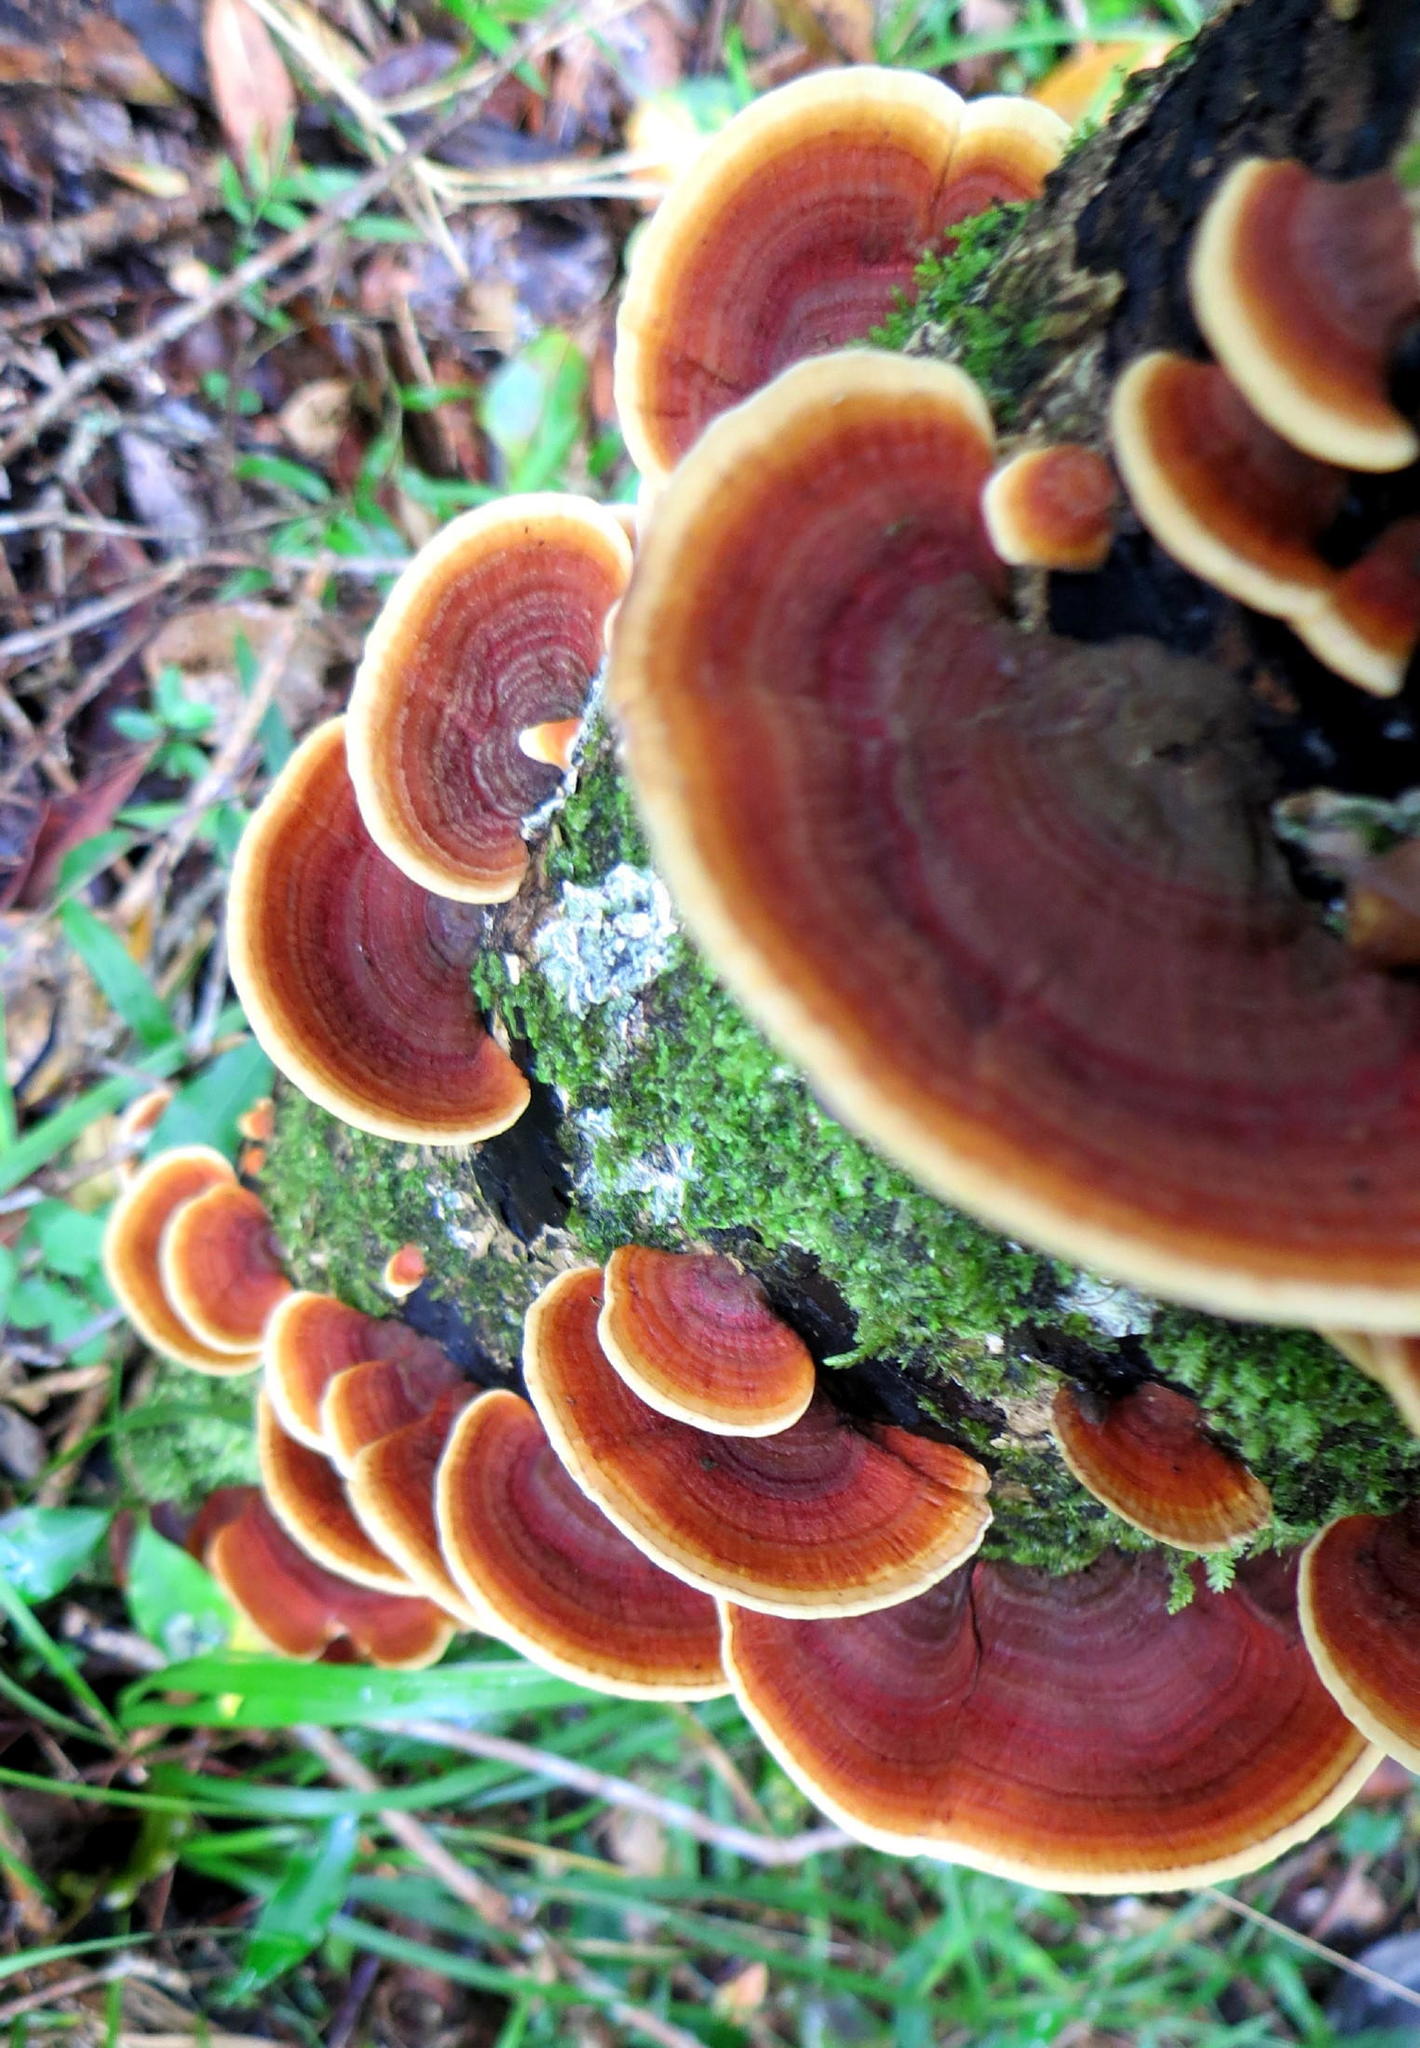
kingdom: Fungi
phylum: Basidiomycota
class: Agaricomycetes
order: Russulales
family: Stereaceae
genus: Stereum
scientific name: Stereum ostrea
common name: False turkeytail
